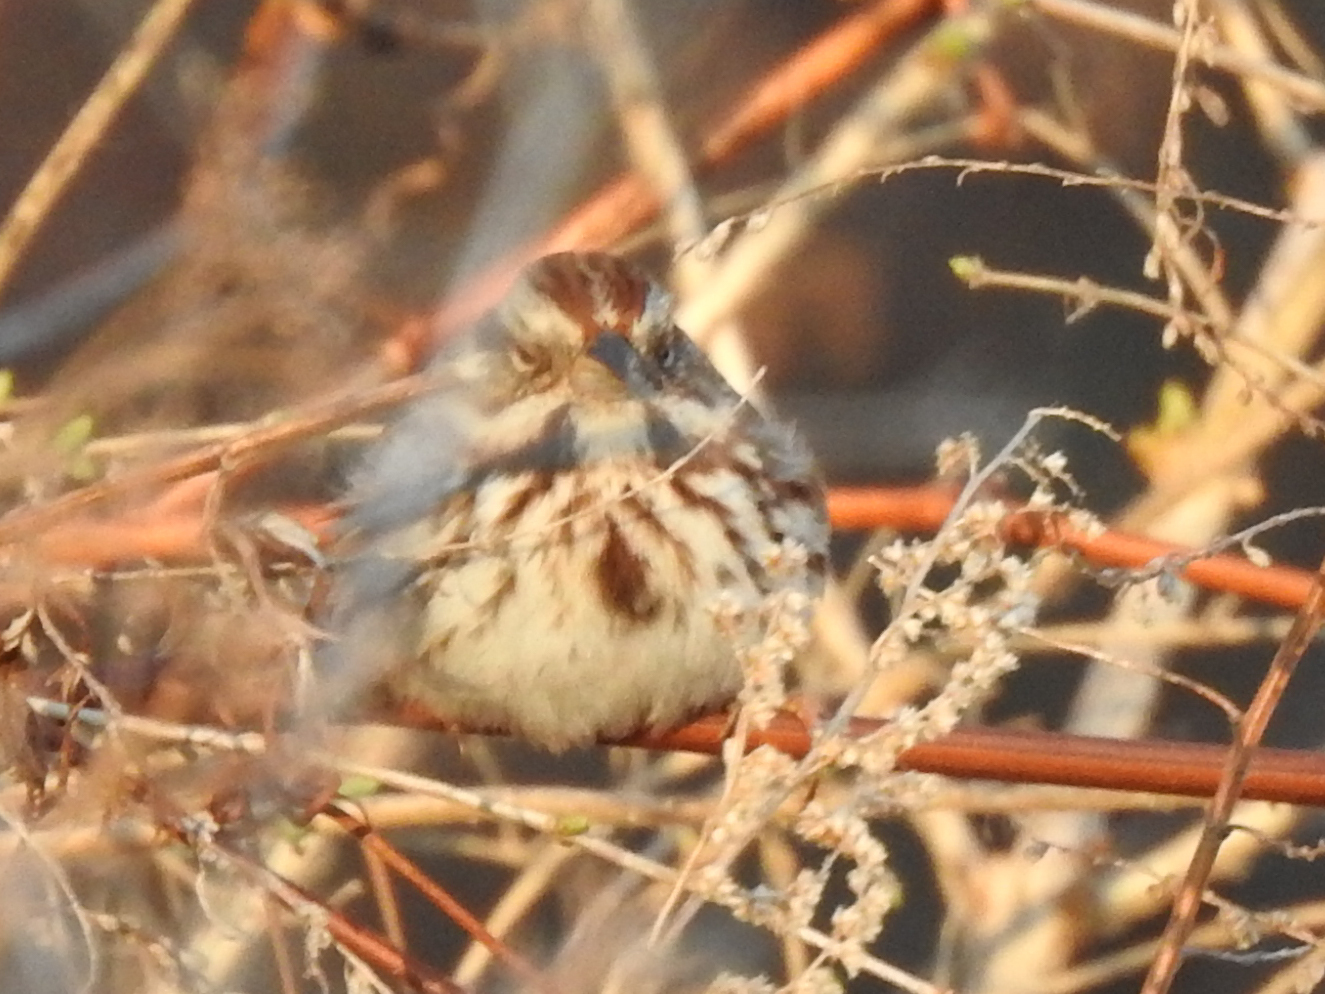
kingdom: Animalia
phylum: Chordata
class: Aves
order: Passeriformes
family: Passerellidae
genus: Melospiza
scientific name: Melospiza melodia
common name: Song sparrow
